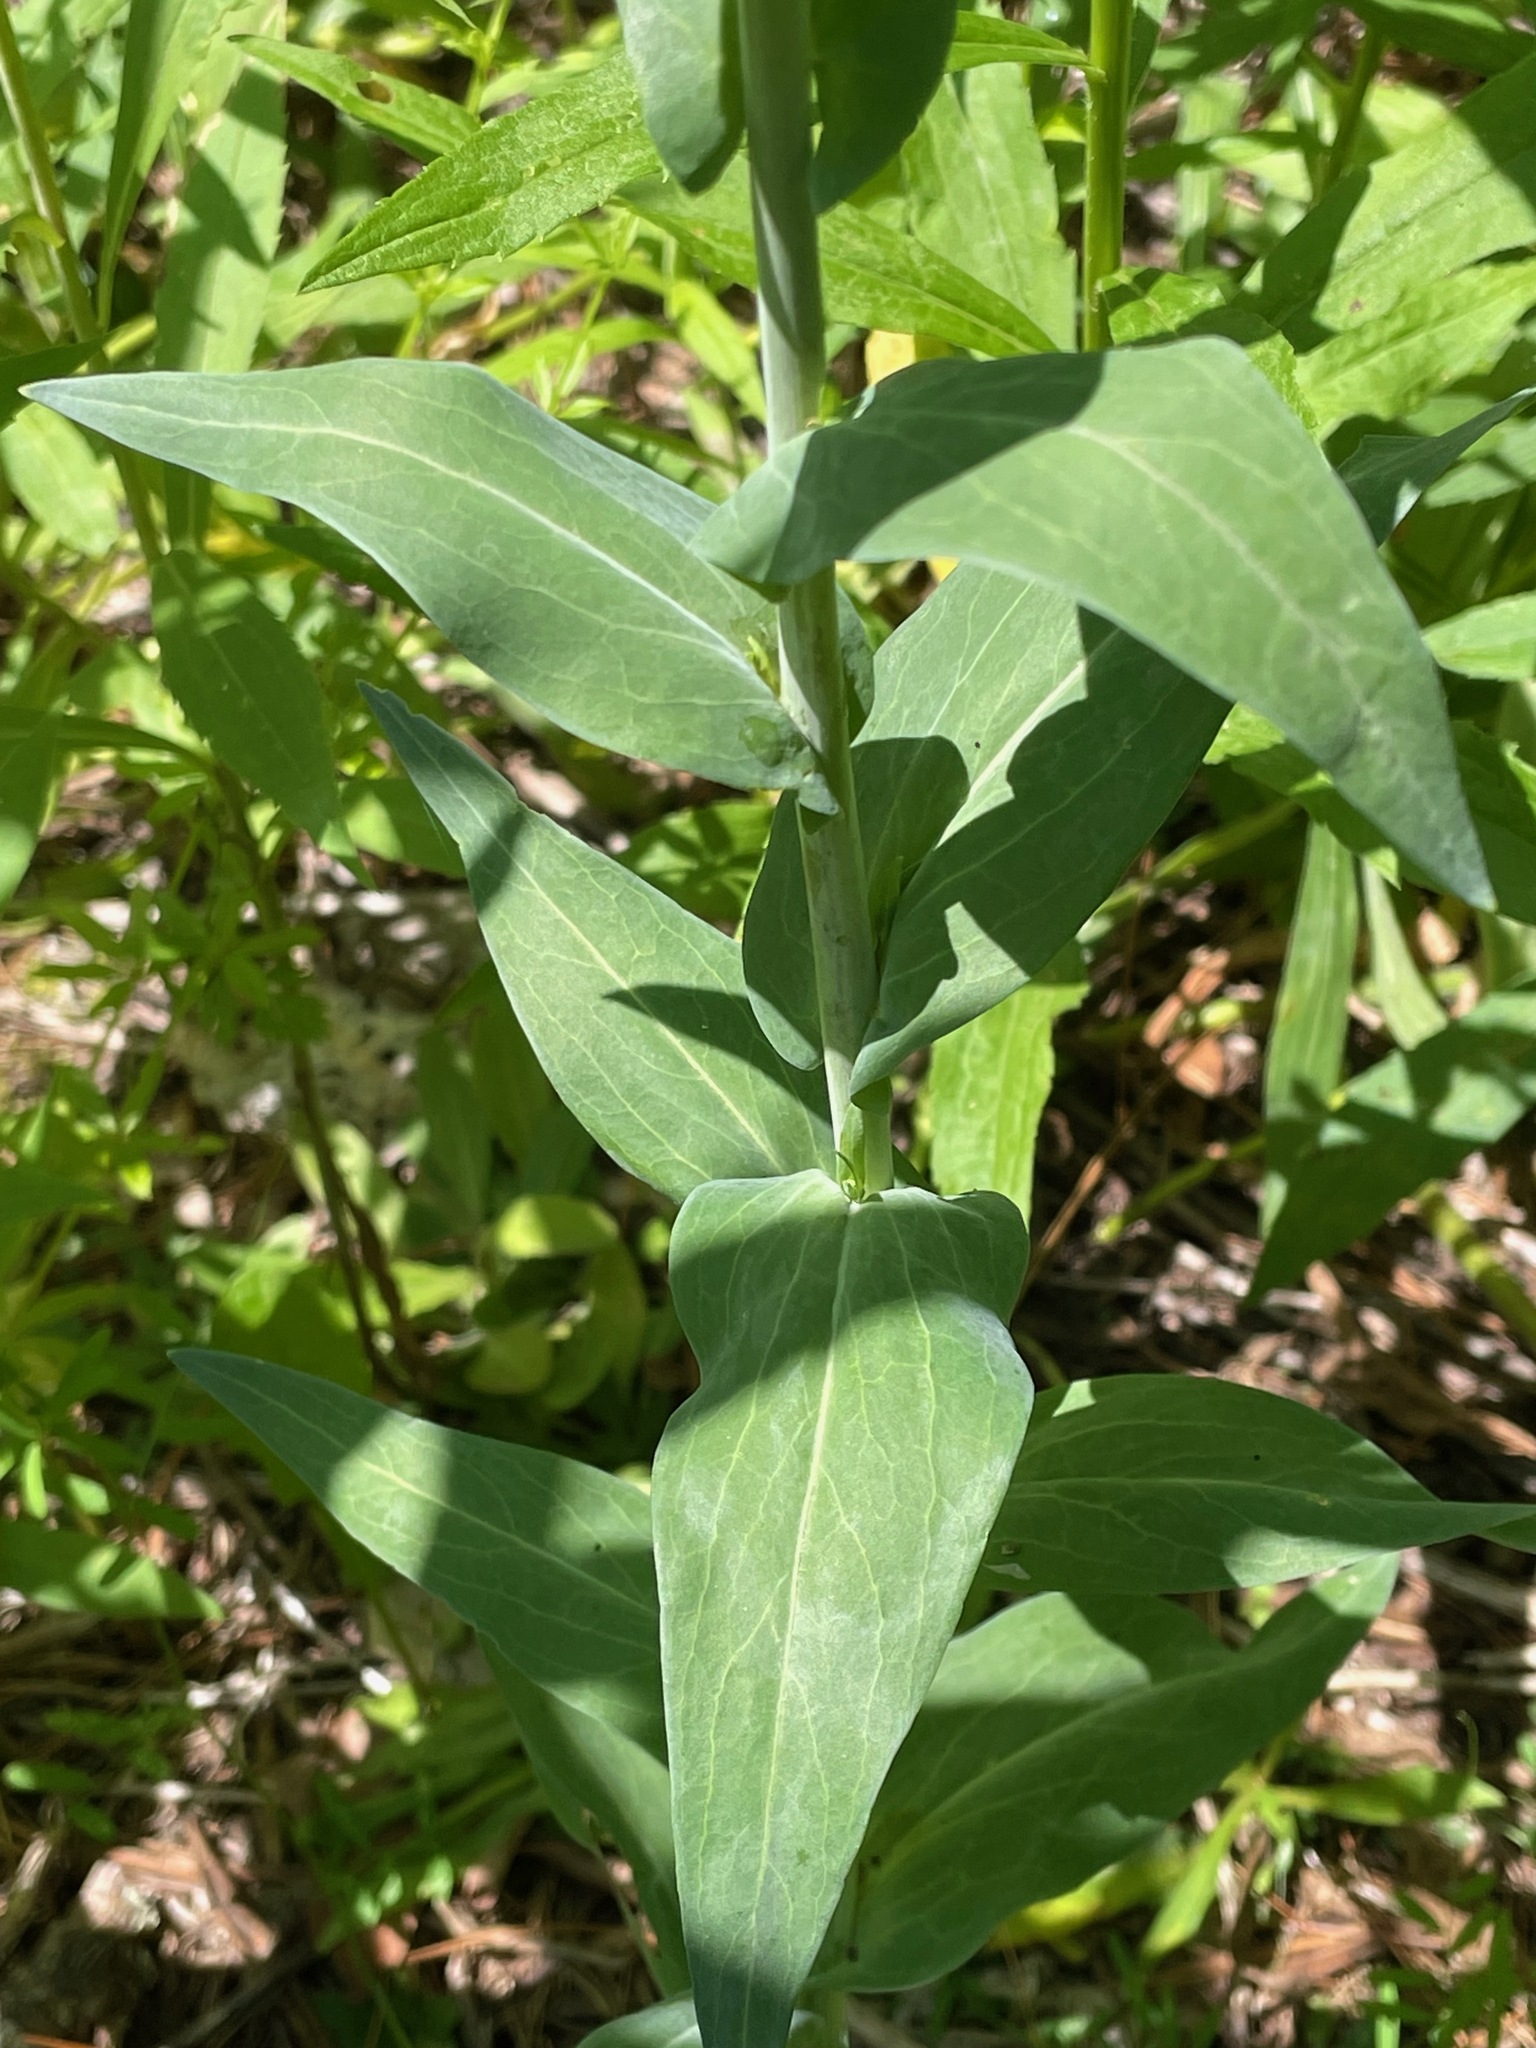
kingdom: Plantae
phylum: Tracheophyta
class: Magnoliopsida
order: Brassicales
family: Brassicaceae
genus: Turritis
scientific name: Turritis glabra
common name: Tower rockcress
